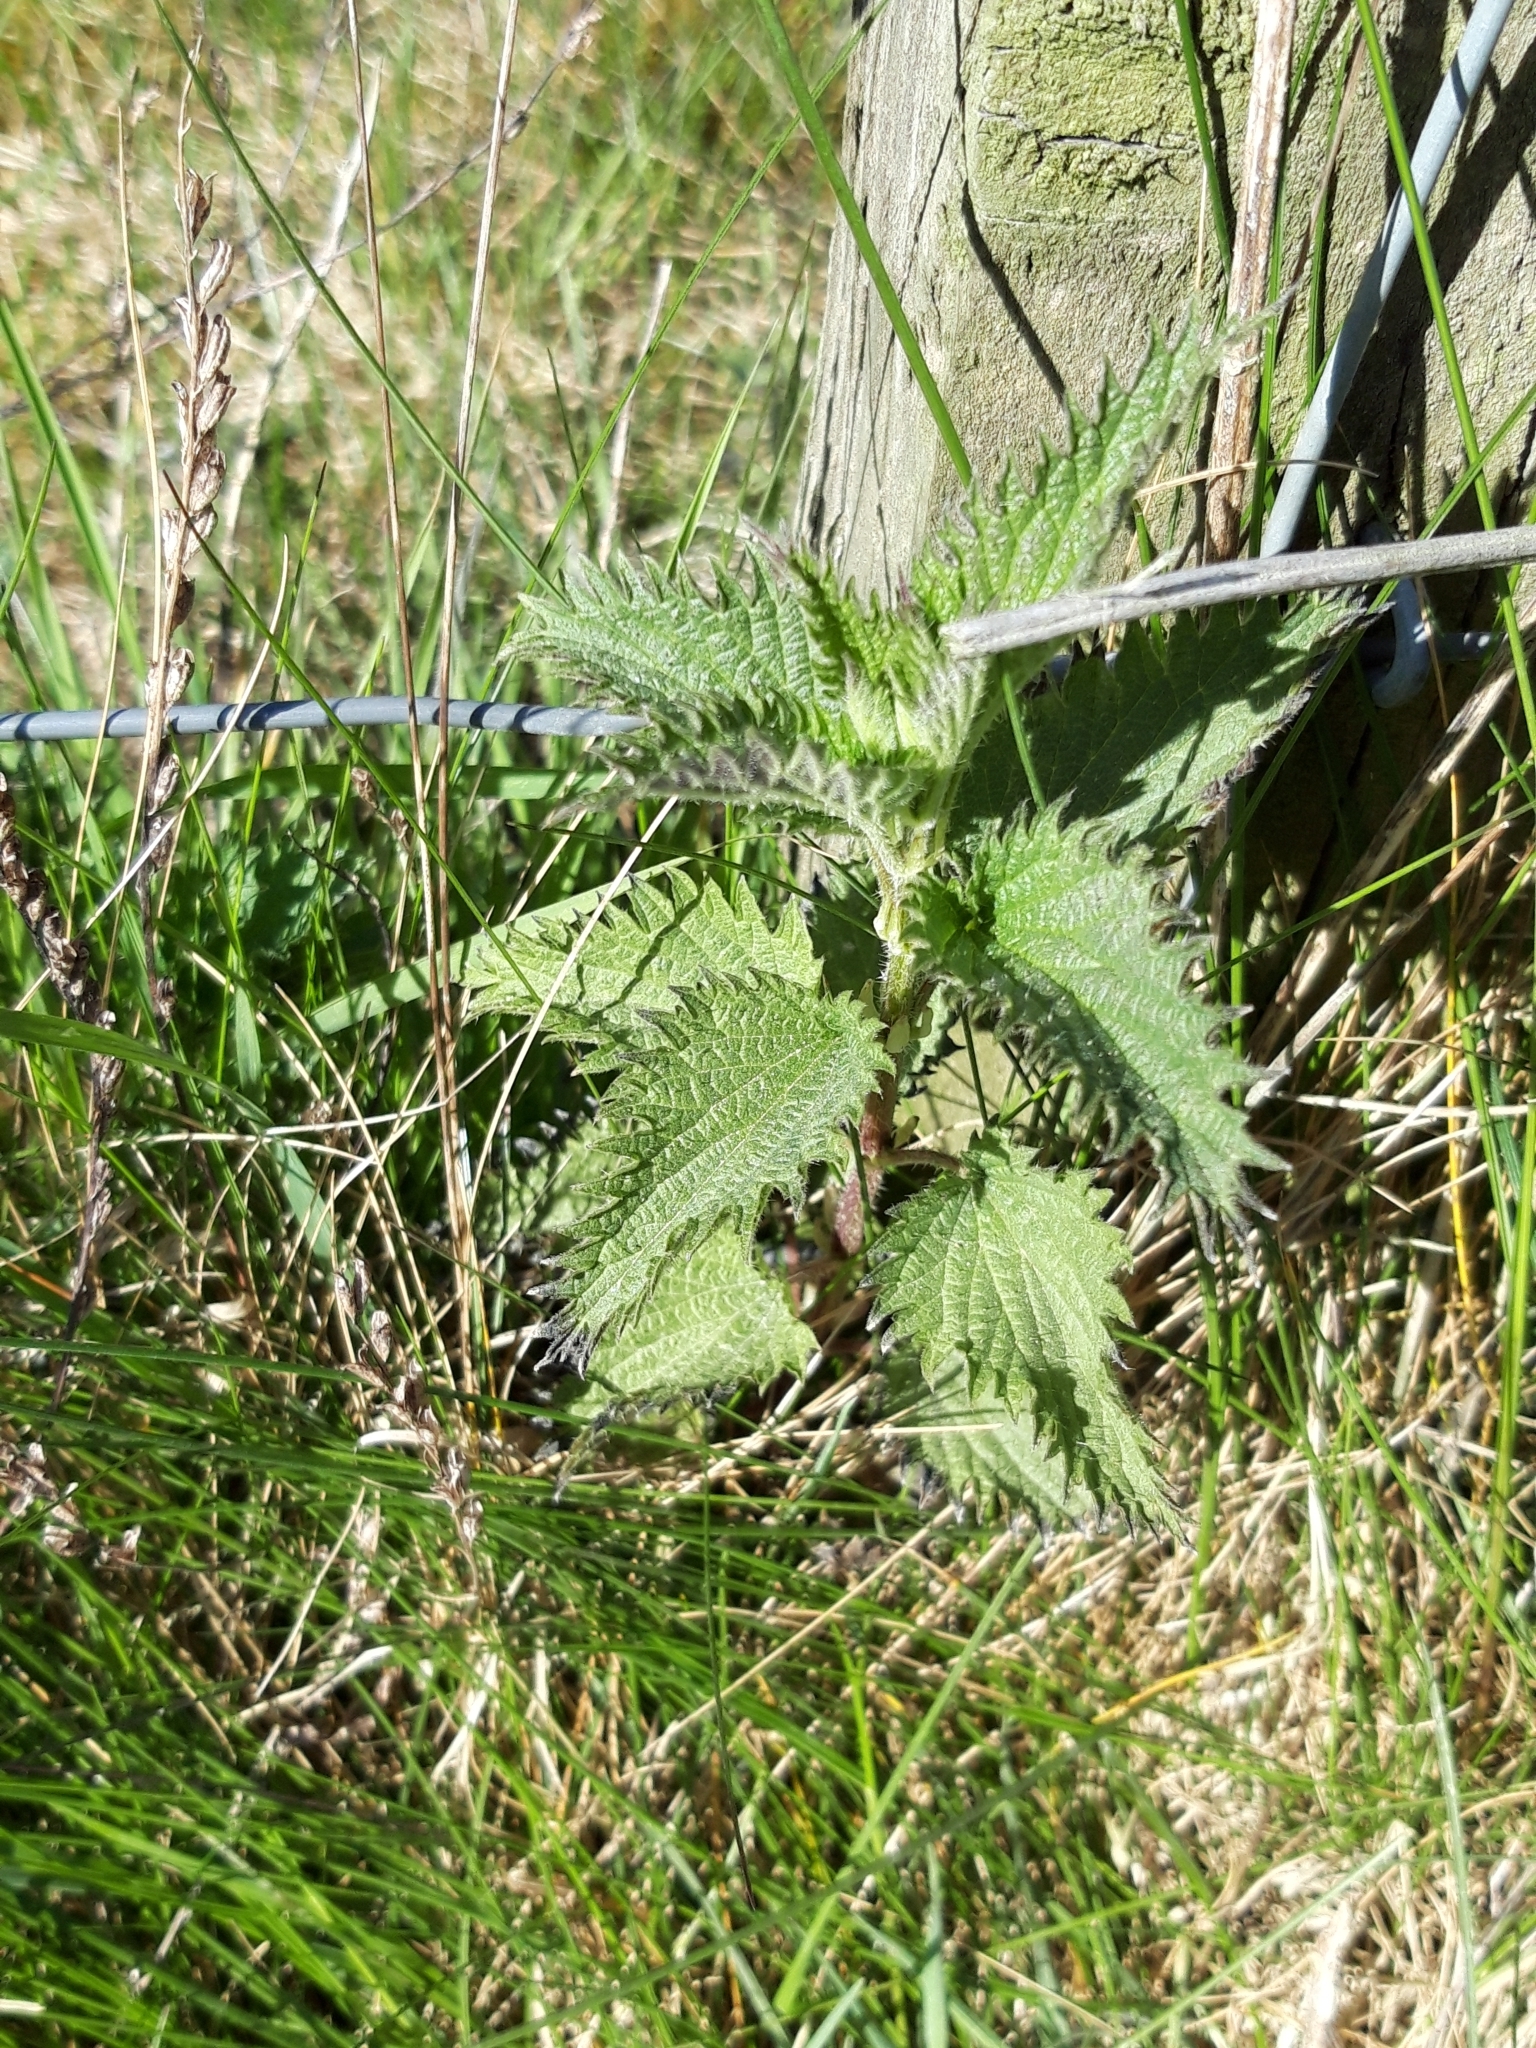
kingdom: Plantae
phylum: Tracheophyta
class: Magnoliopsida
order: Rosales
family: Urticaceae
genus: Urtica
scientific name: Urtica dioica
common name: Common nettle
